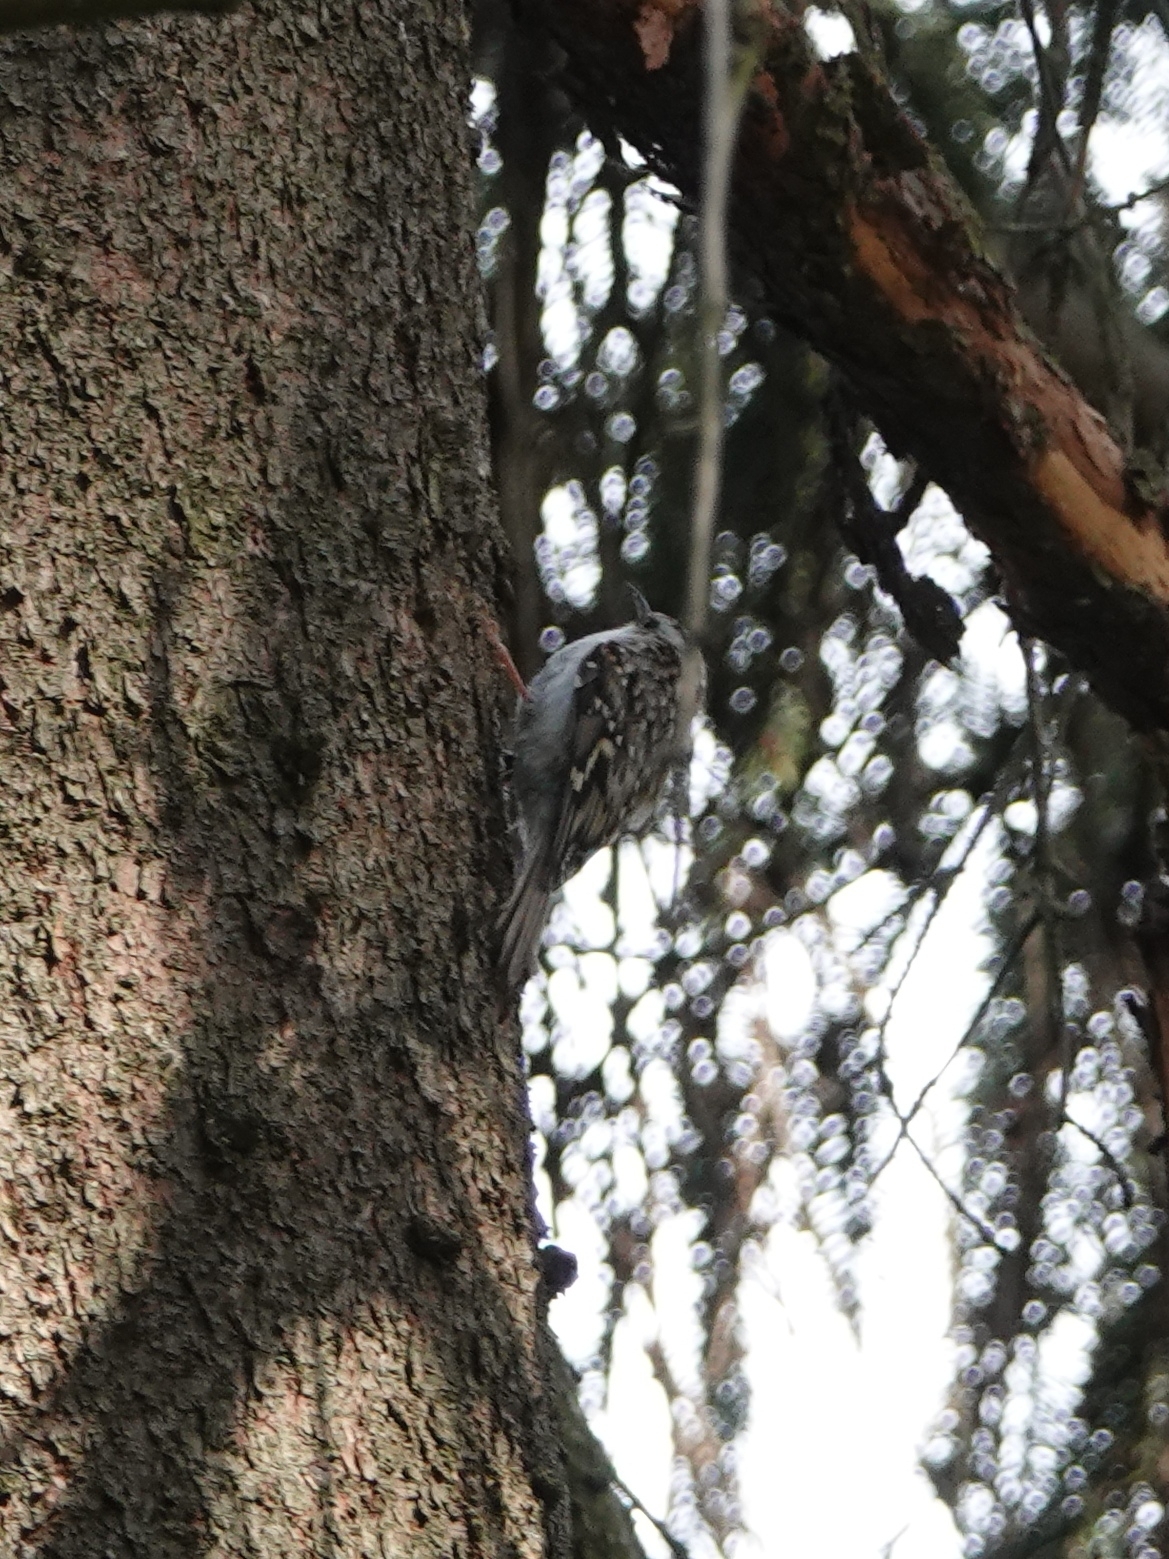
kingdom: Animalia
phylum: Chordata
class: Aves
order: Passeriformes
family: Certhiidae
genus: Certhia
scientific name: Certhia familiaris
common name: Eurasian treecreeper
